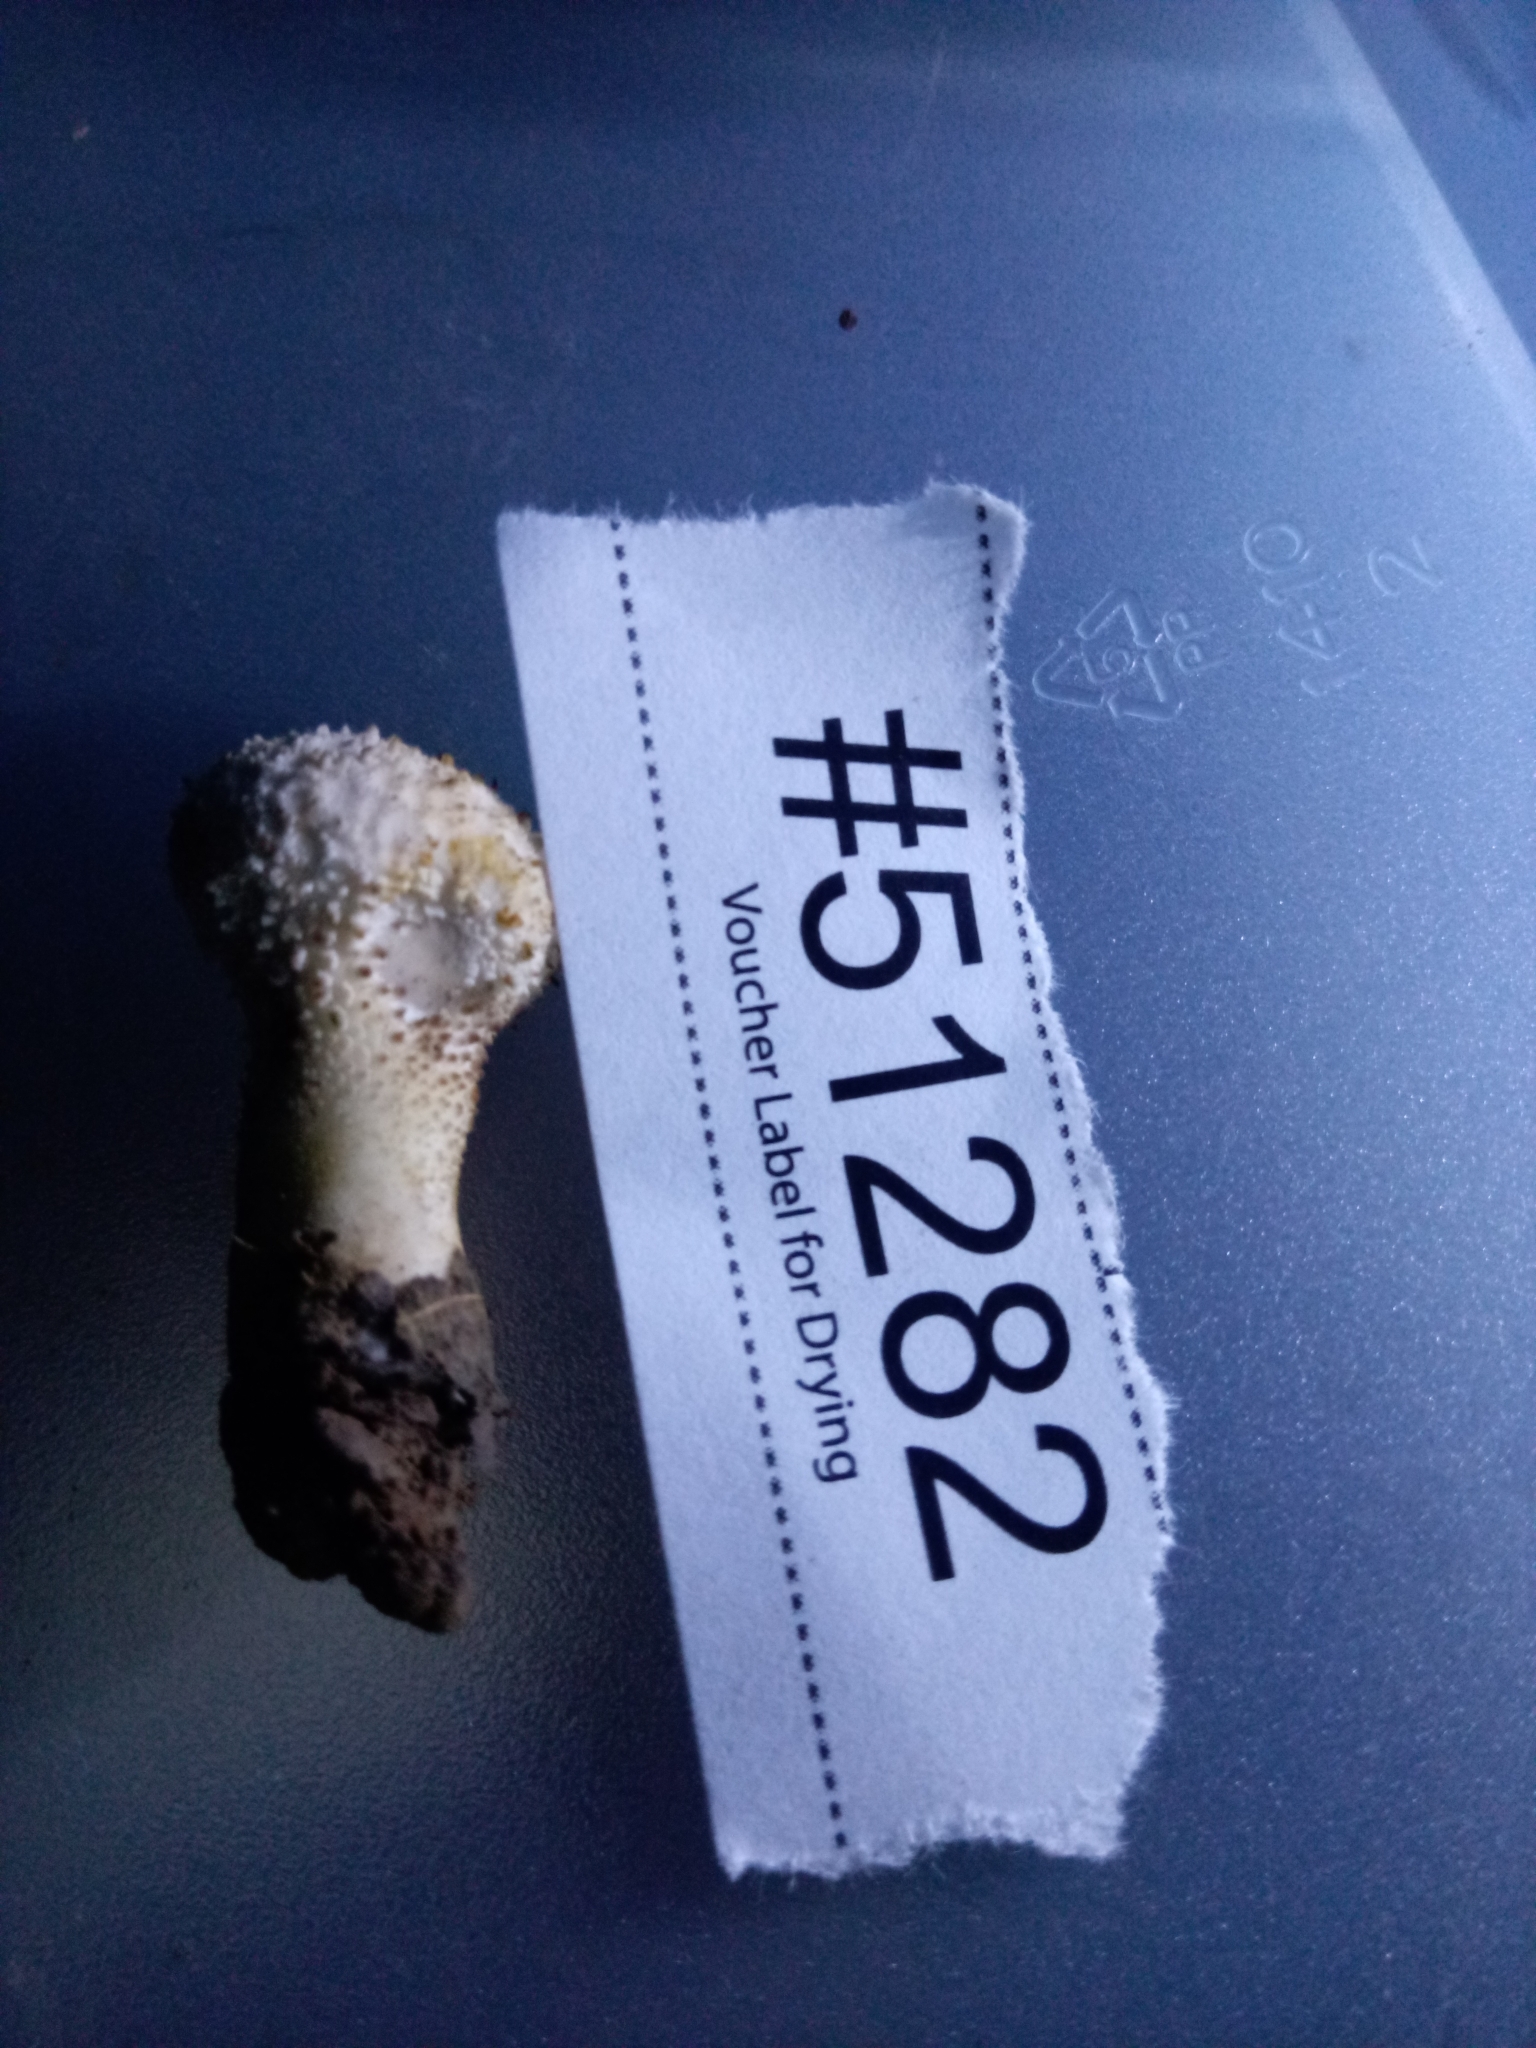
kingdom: Fungi
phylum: Basidiomycota
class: Agaricomycetes
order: Agaricales
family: Lycoperdaceae
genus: Lycoperdon
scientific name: Lycoperdon perlatum
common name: Common puffball
